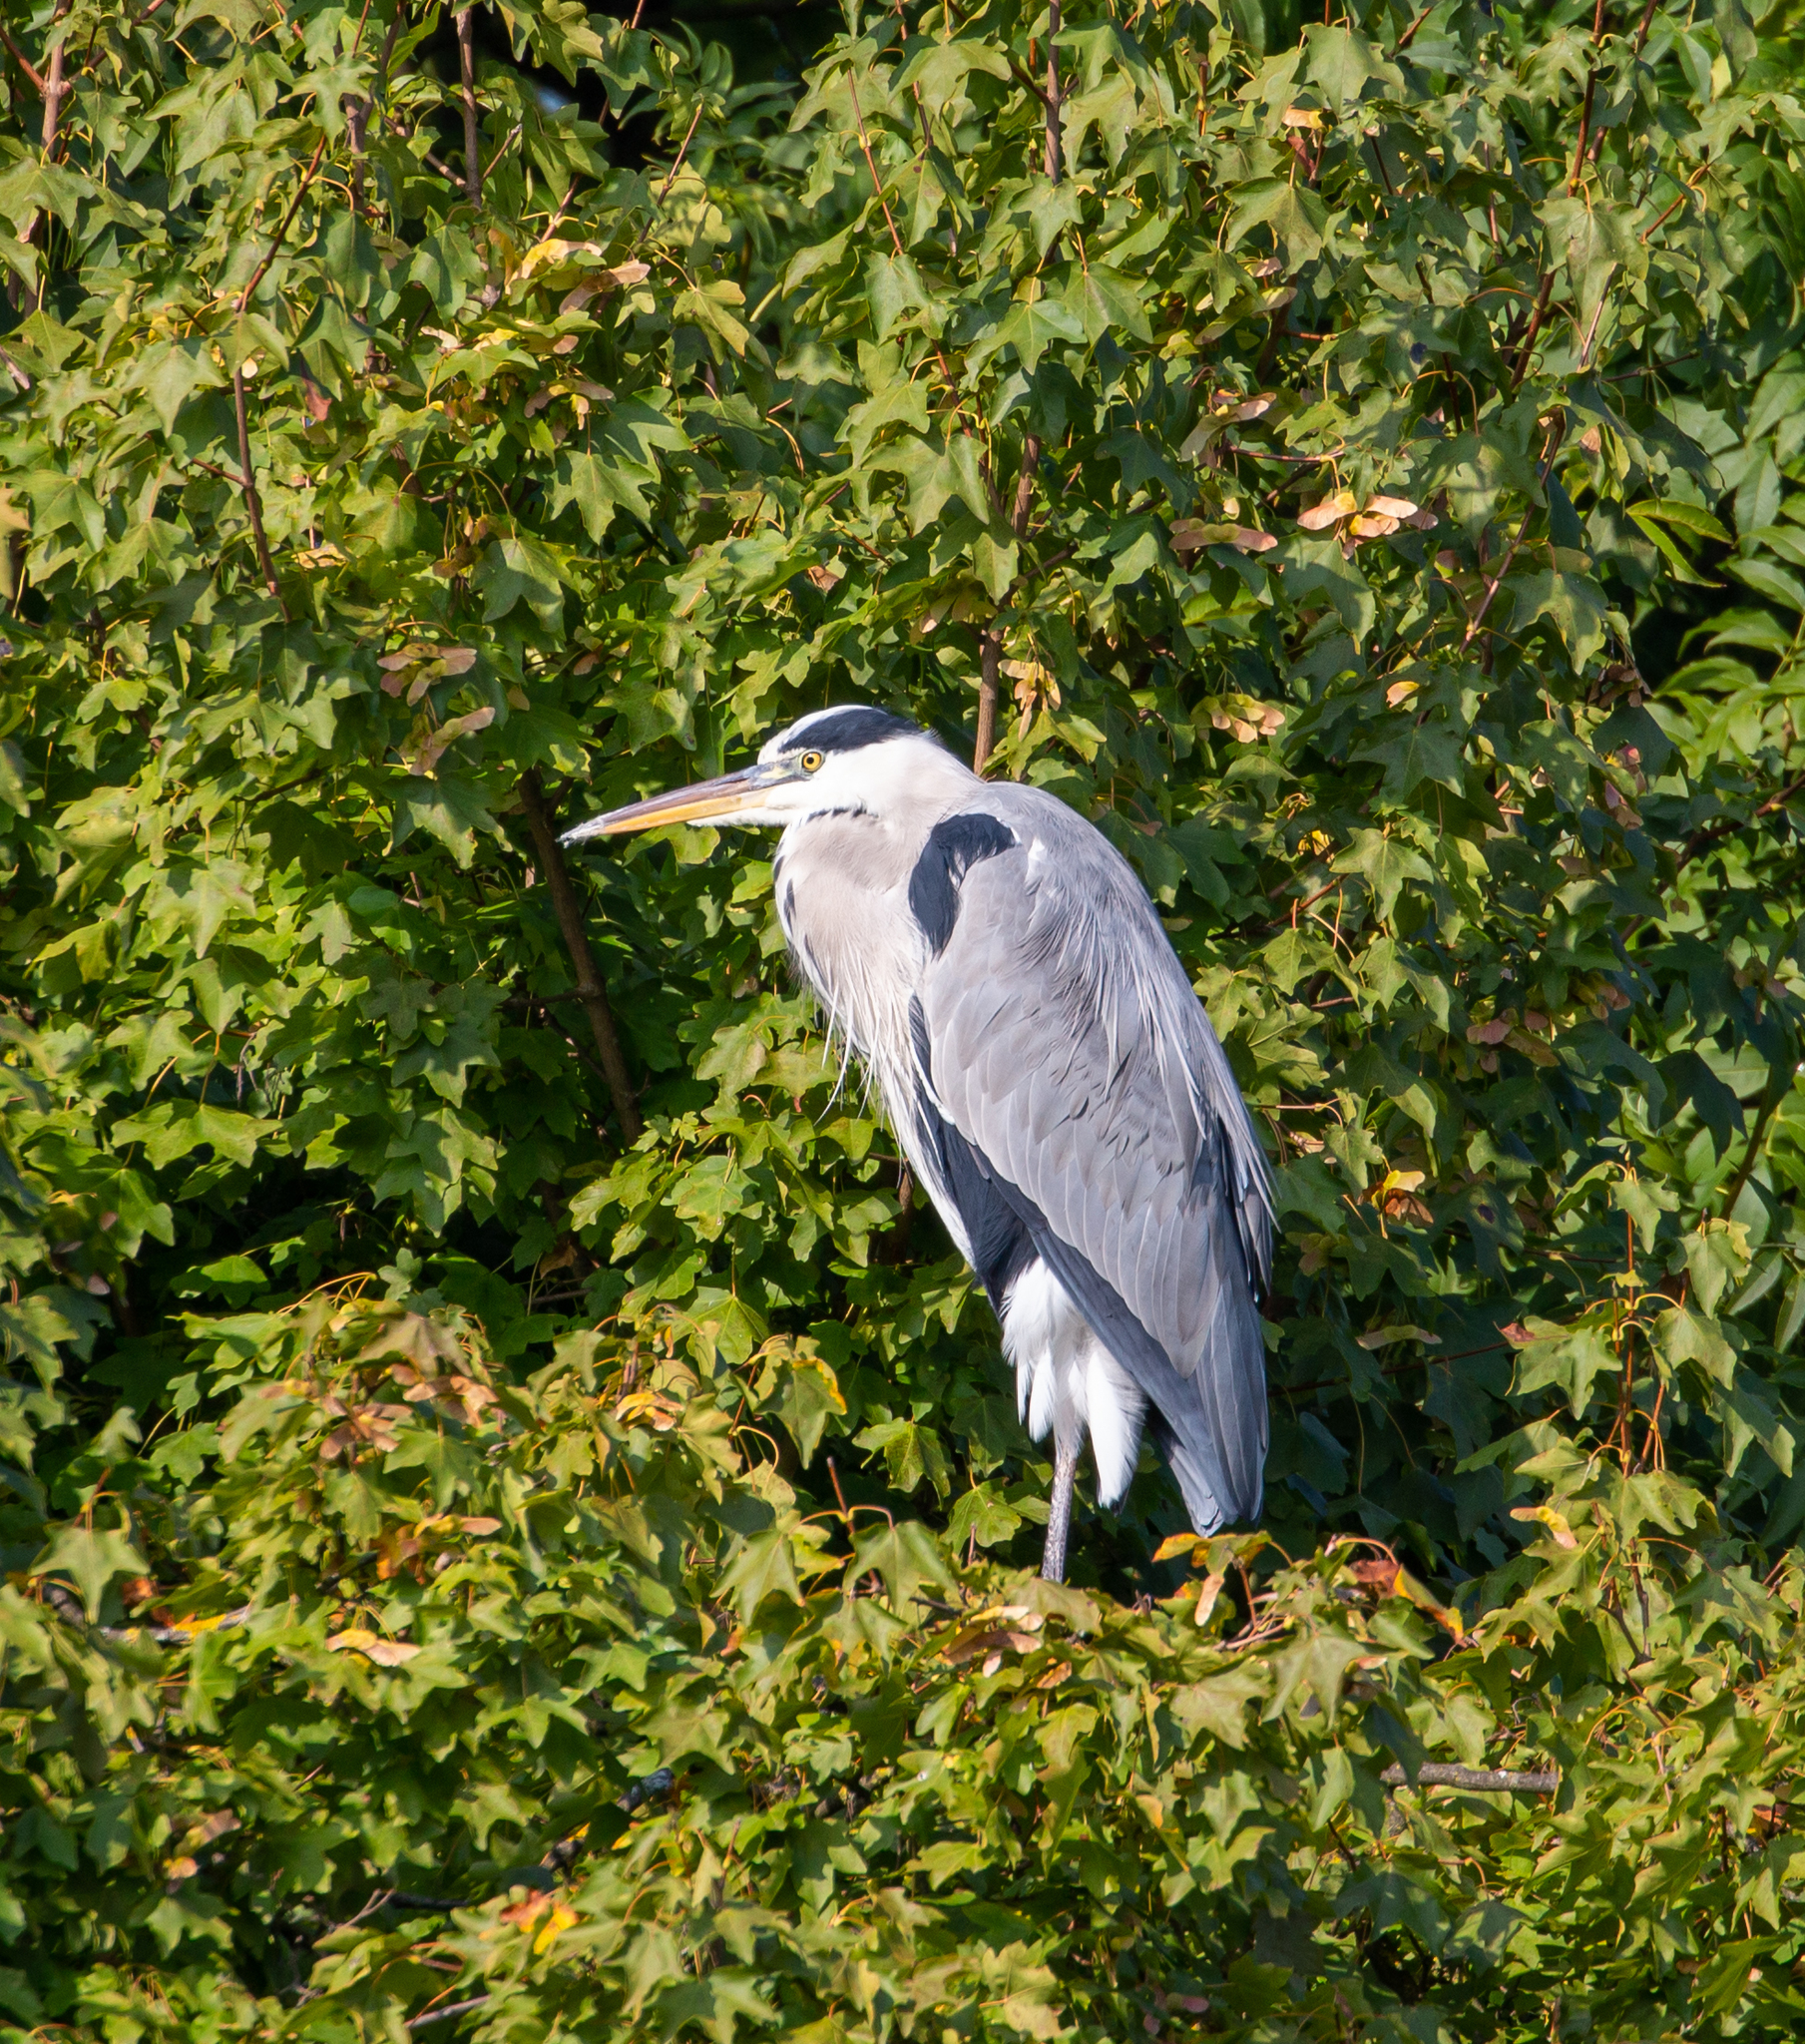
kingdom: Animalia
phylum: Chordata
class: Aves
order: Pelecaniformes
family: Ardeidae
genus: Ardea
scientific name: Ardea cinerea
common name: Grey heron
